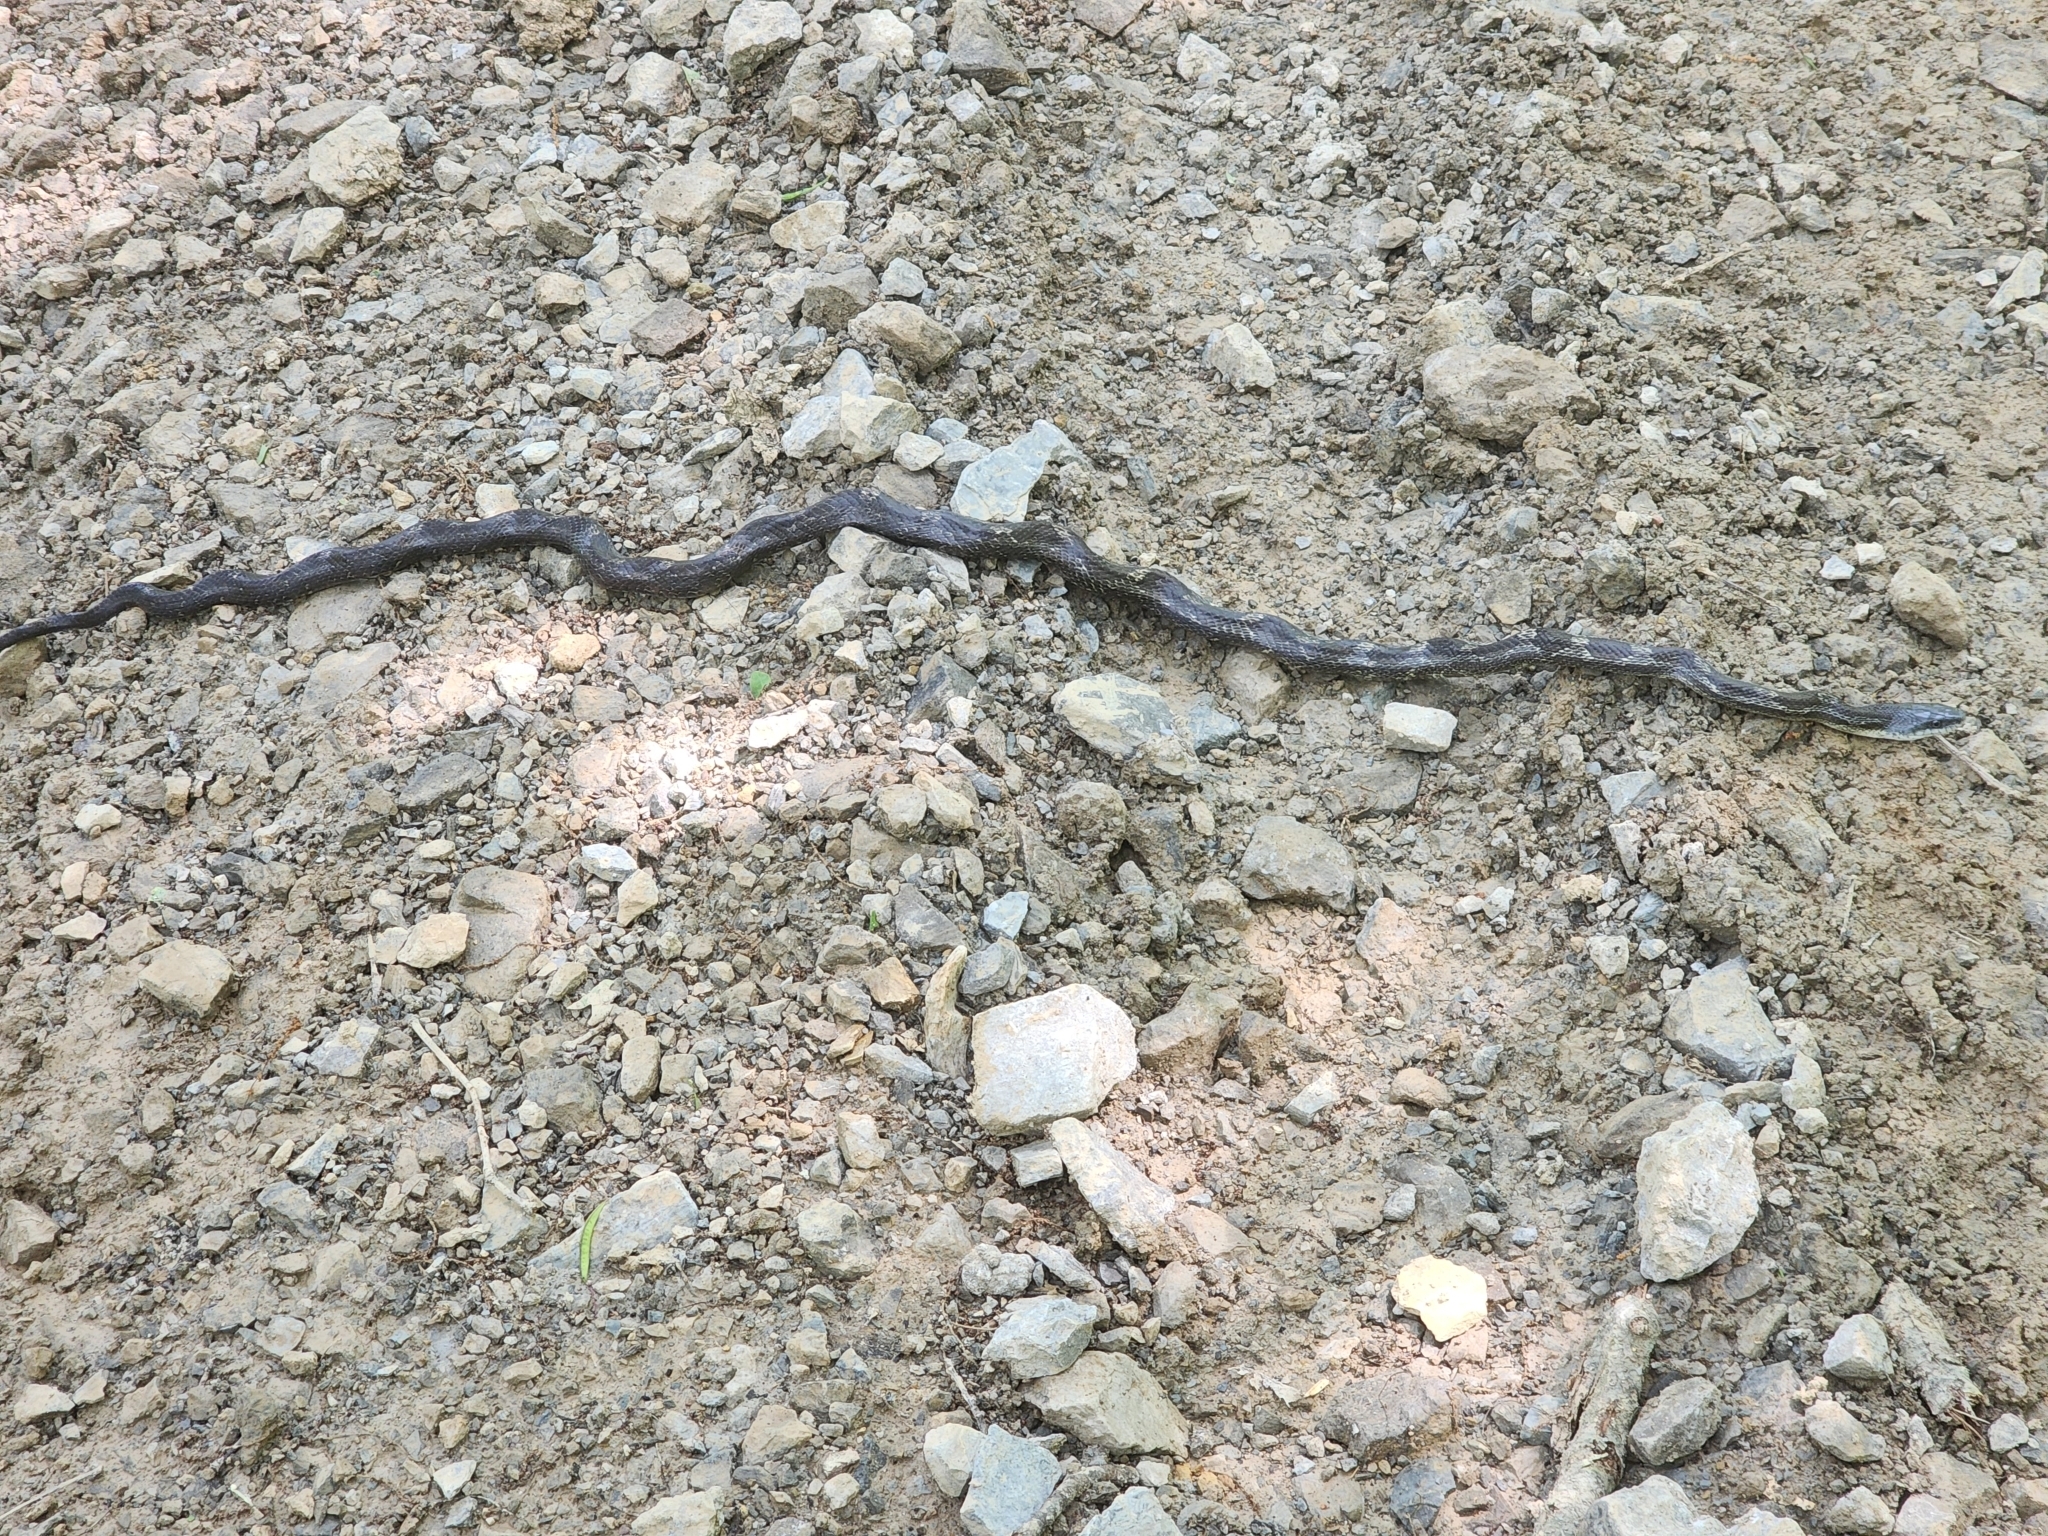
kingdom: Animalia
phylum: Chordata
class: Squamata
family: Colubridae
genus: Pantherophis
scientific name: Pantherophis spiloides
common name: Gray rat snake
